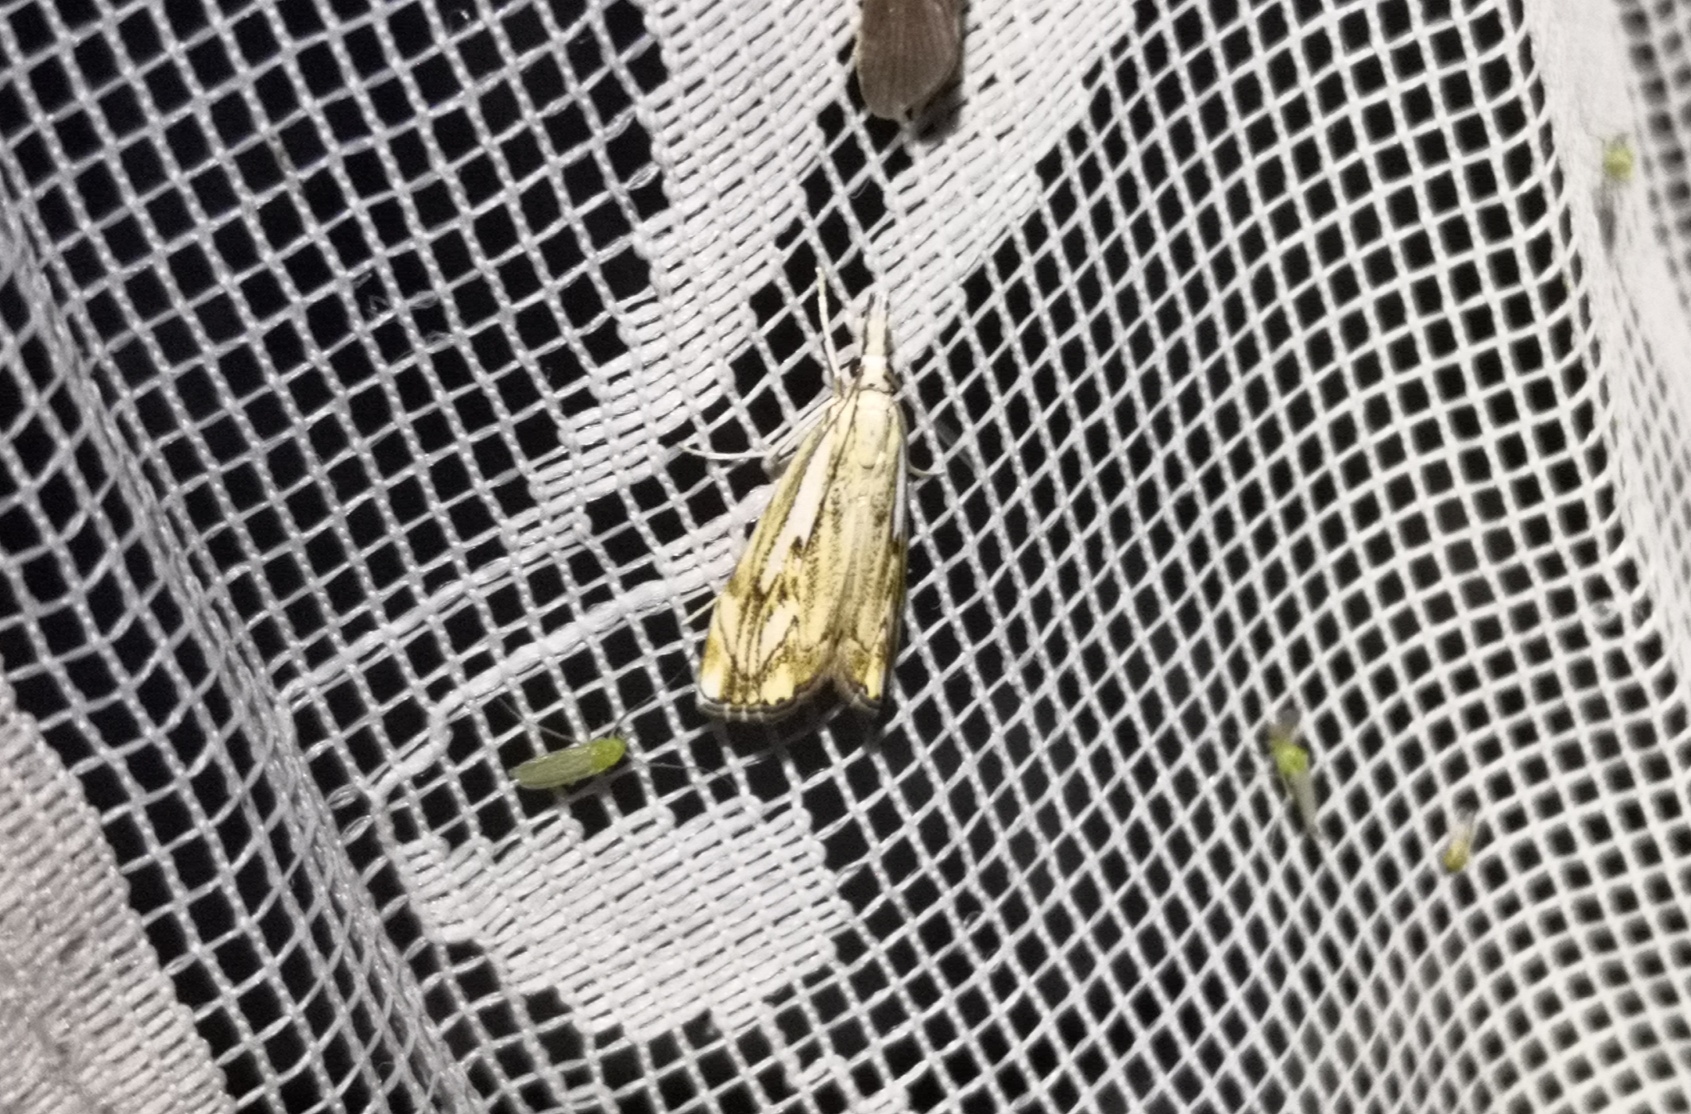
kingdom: Animalia
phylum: Arthropoda
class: Insecta
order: Lepidoptera
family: Crambidae
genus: Catoptria
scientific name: Catoptria falsella
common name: Chequered grass-veneer
